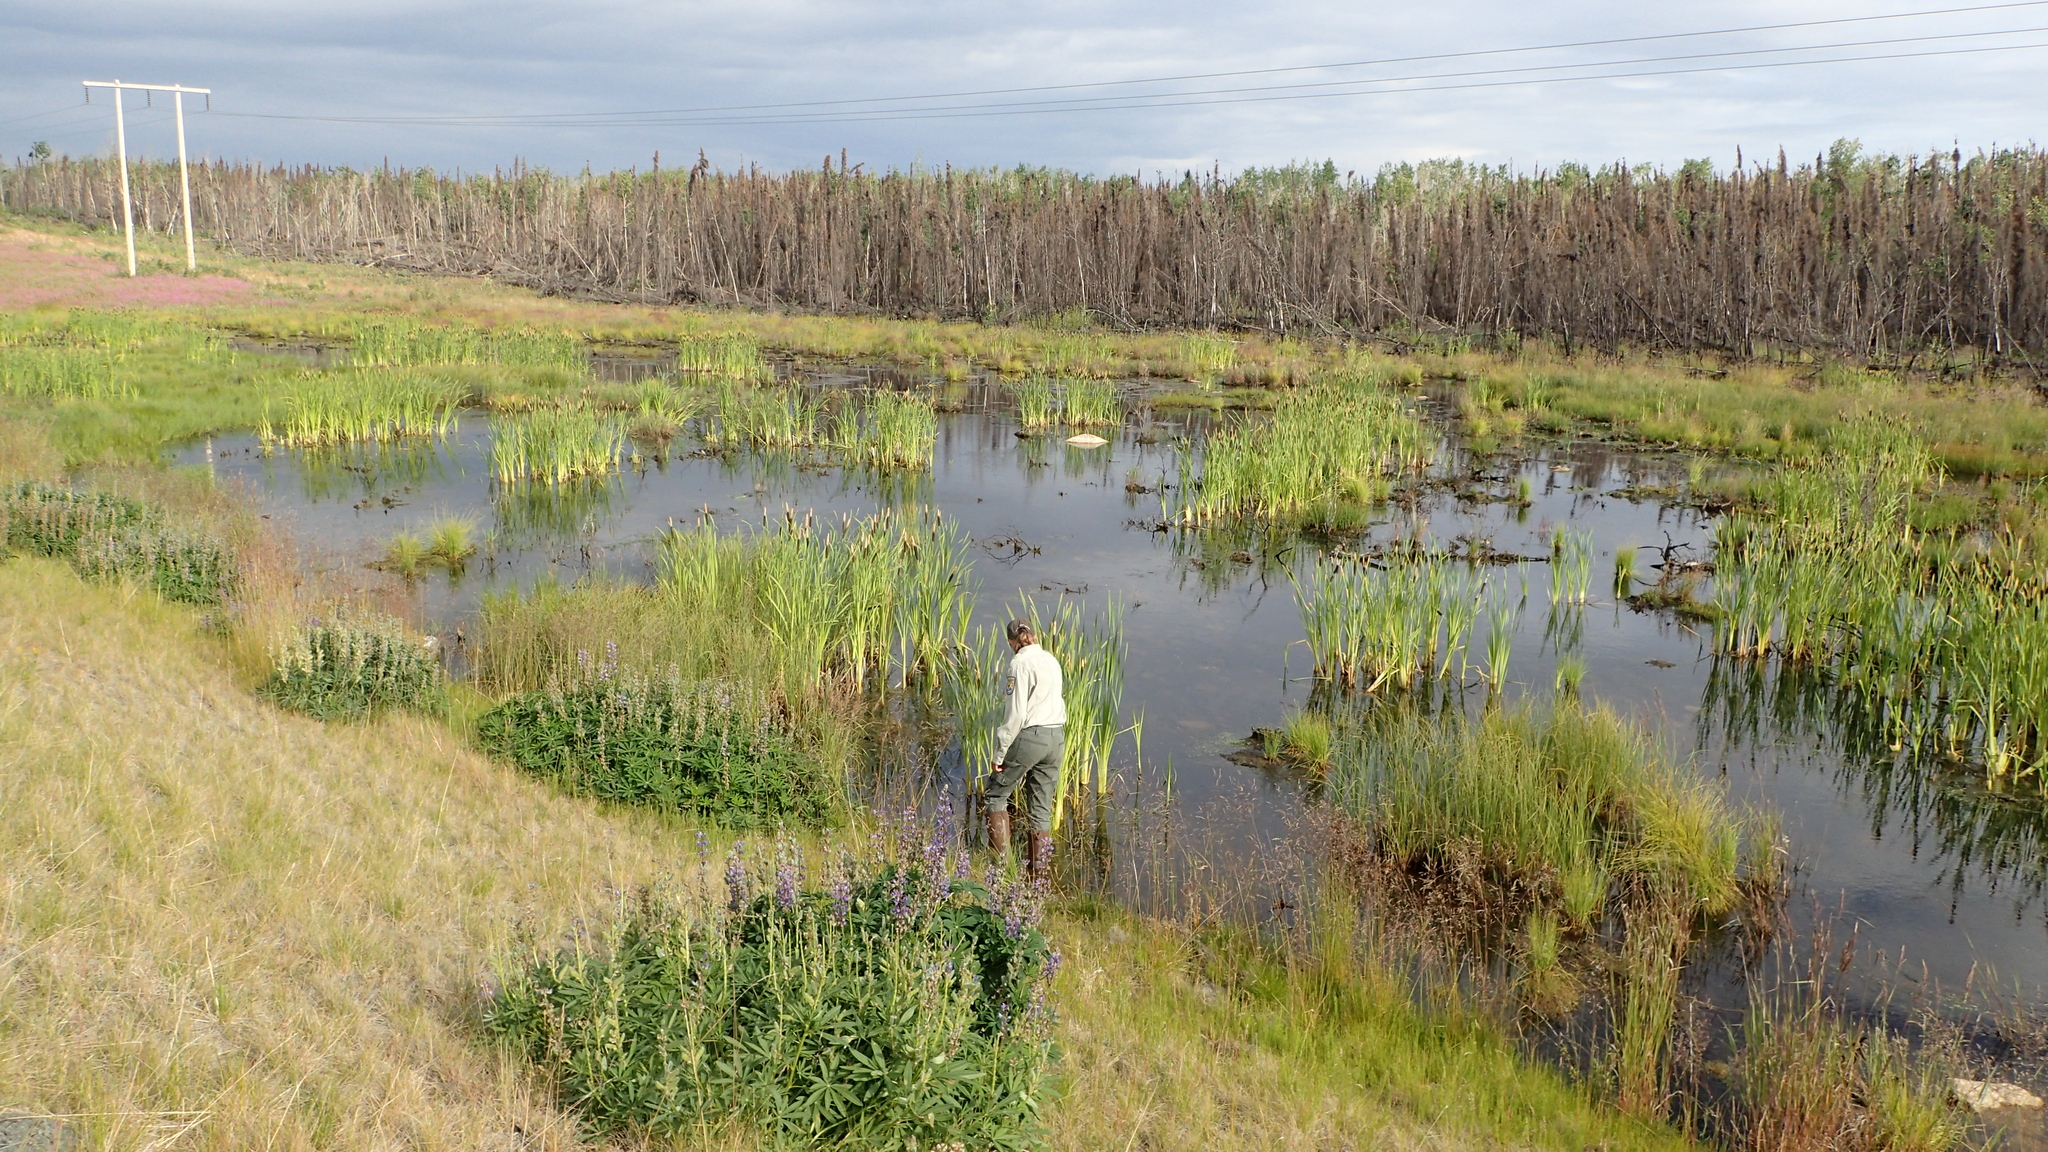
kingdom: Plantae
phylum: Tracheophyta
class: Liliopsida
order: Poales
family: Typhaceae
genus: Typha
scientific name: Typha latifolia
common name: Broadleaf cattail
